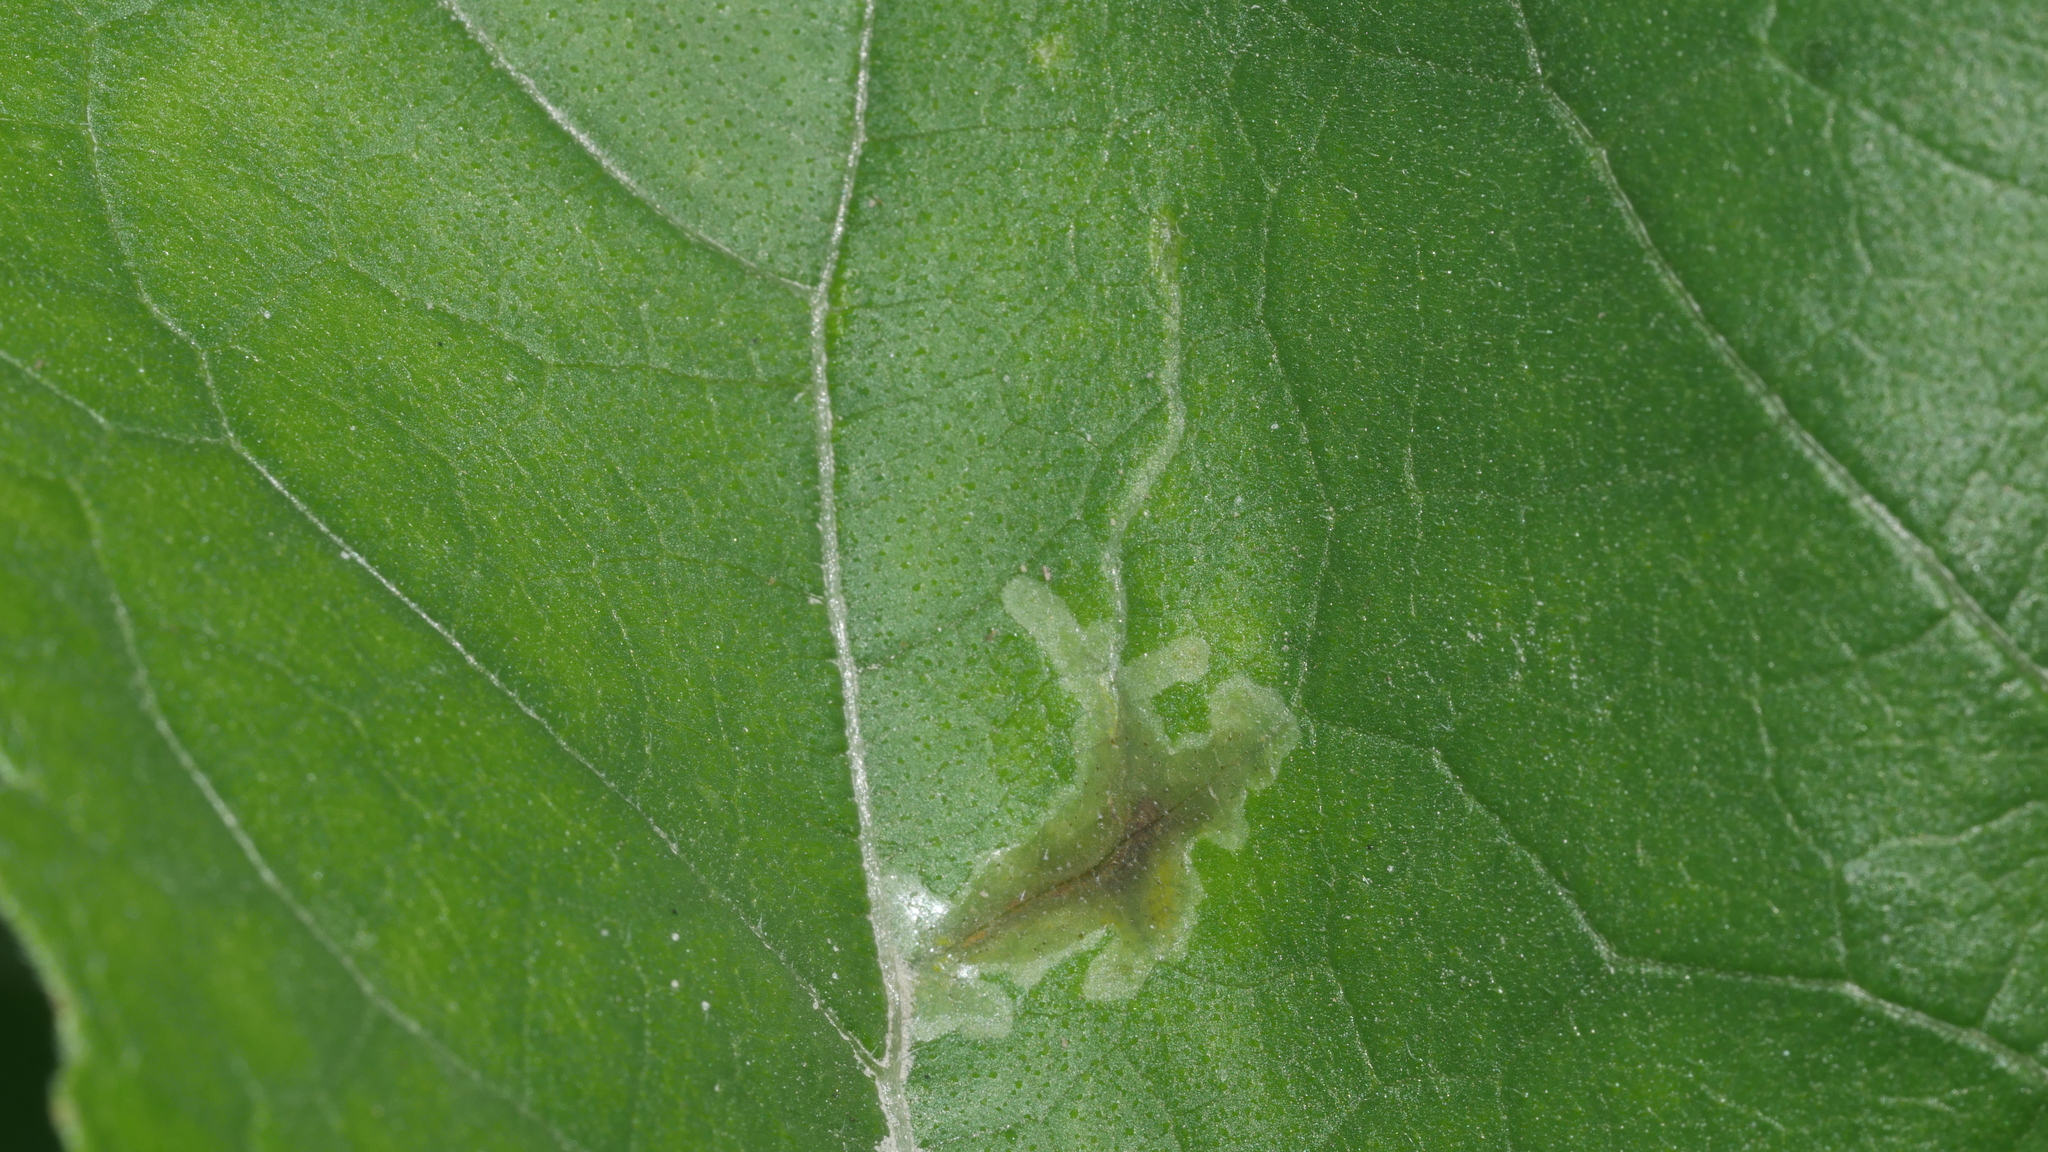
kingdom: Animalia
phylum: Arthropoda
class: Insecta
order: Diptera
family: Agromyzidae
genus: Calycomyza
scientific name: Calycomyza platyptera
